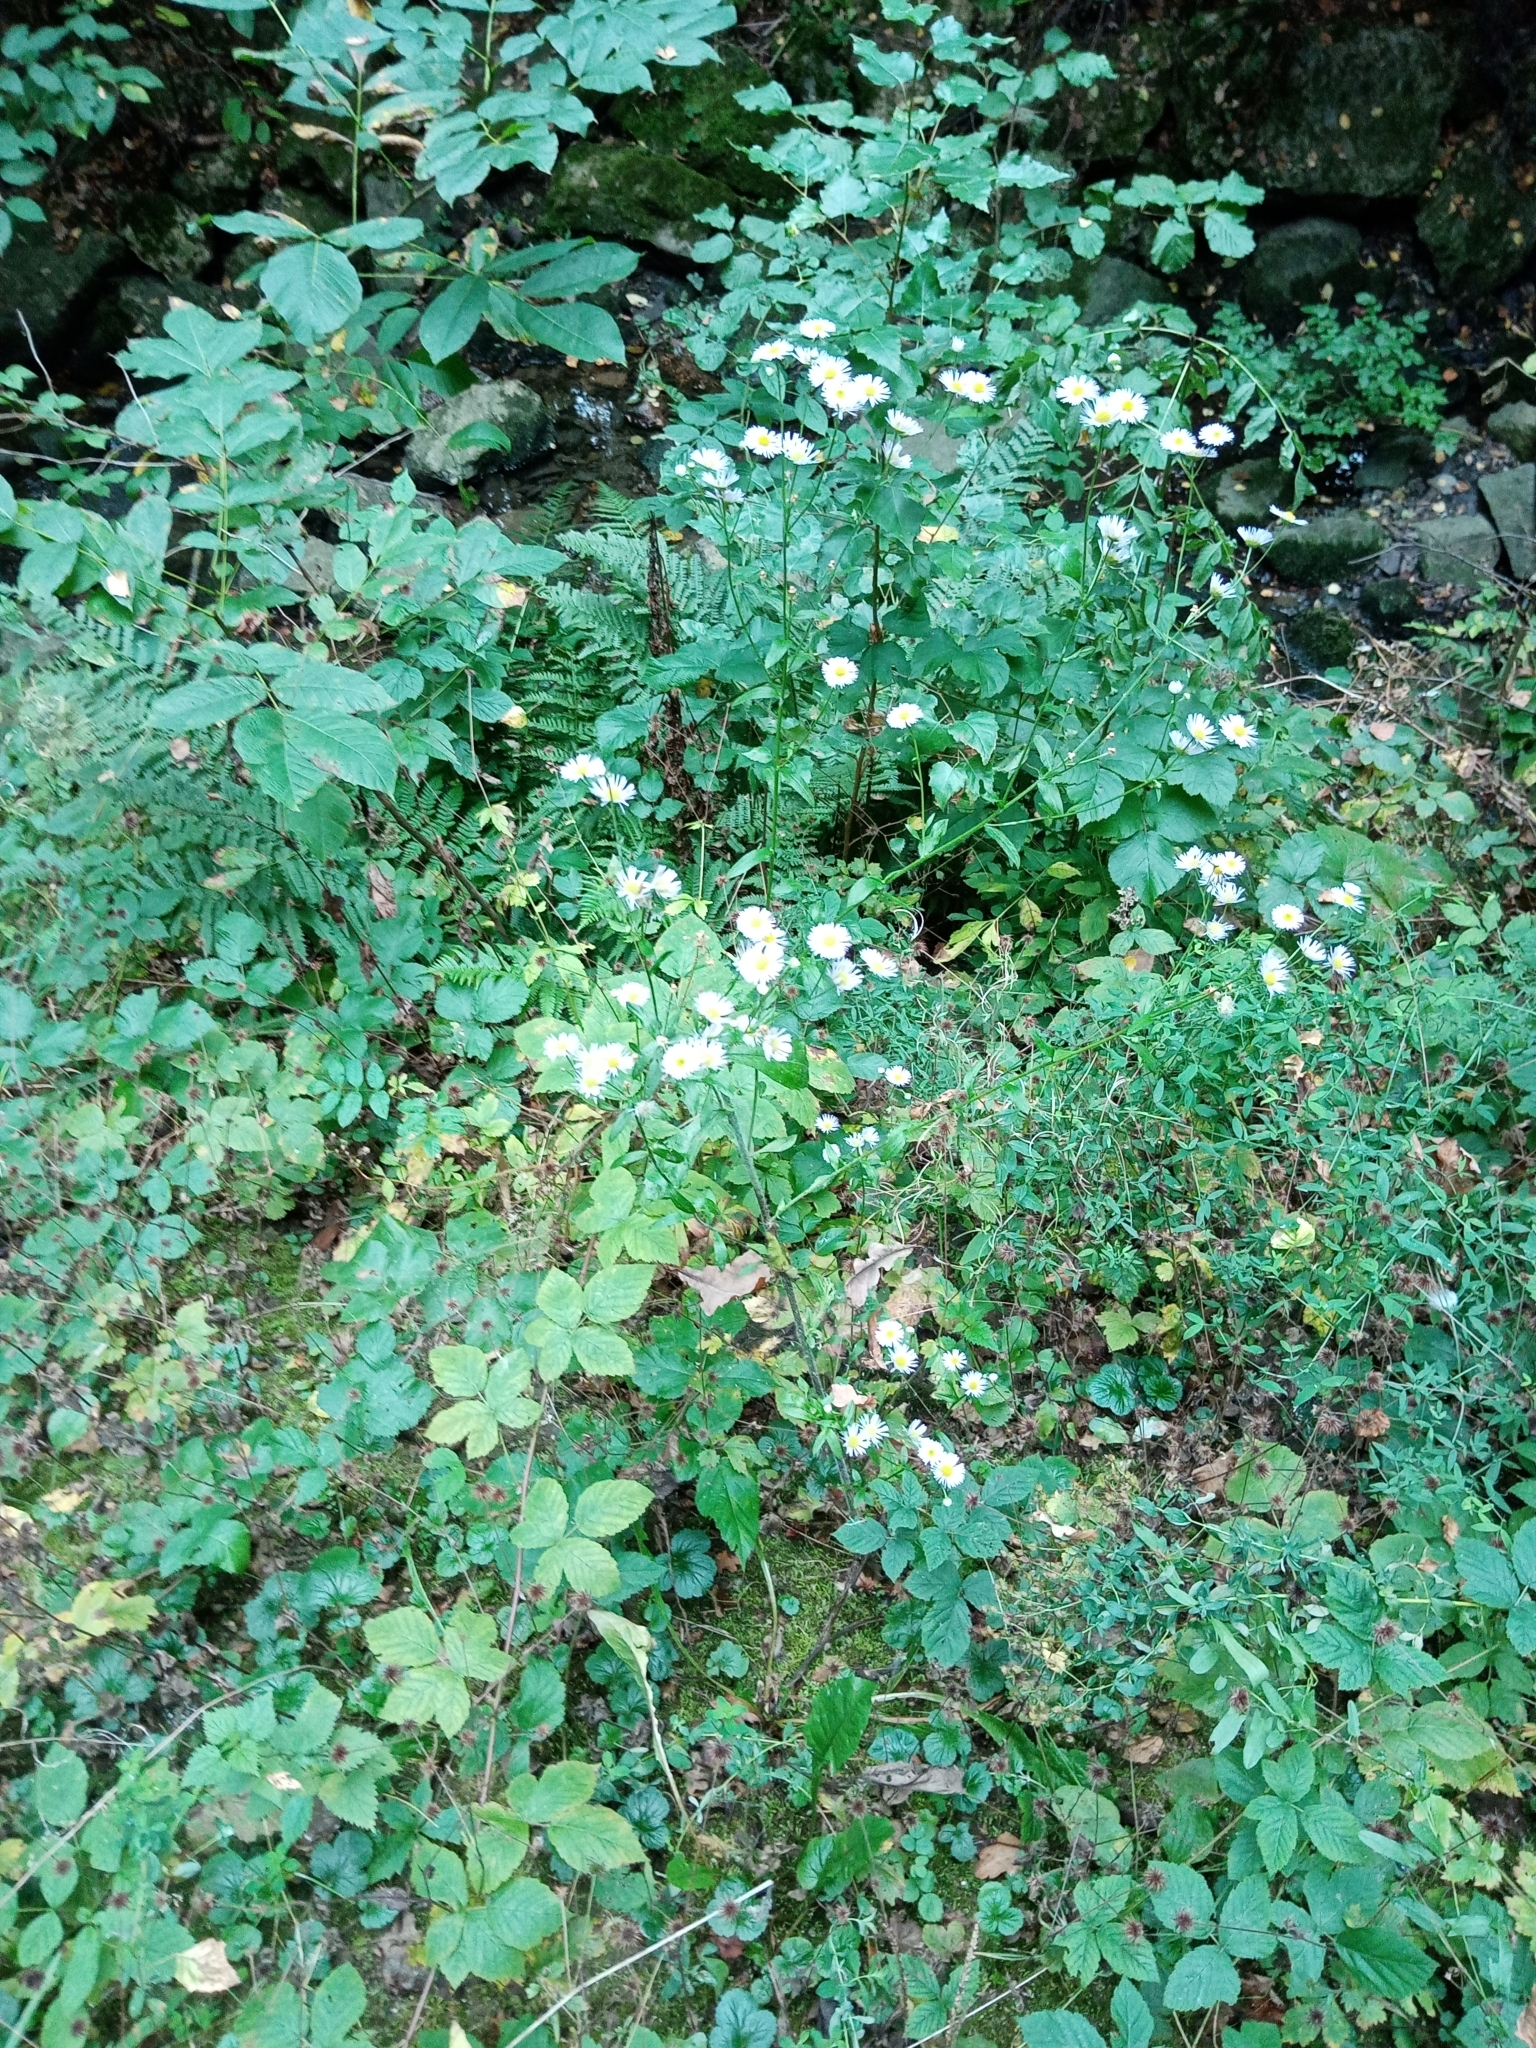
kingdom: Plantae
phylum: Tracheophyta
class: Magnoliopsida
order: Asterales
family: Asteraceae
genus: Erigeron
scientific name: Erigeron annuus
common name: Tall fleabane
